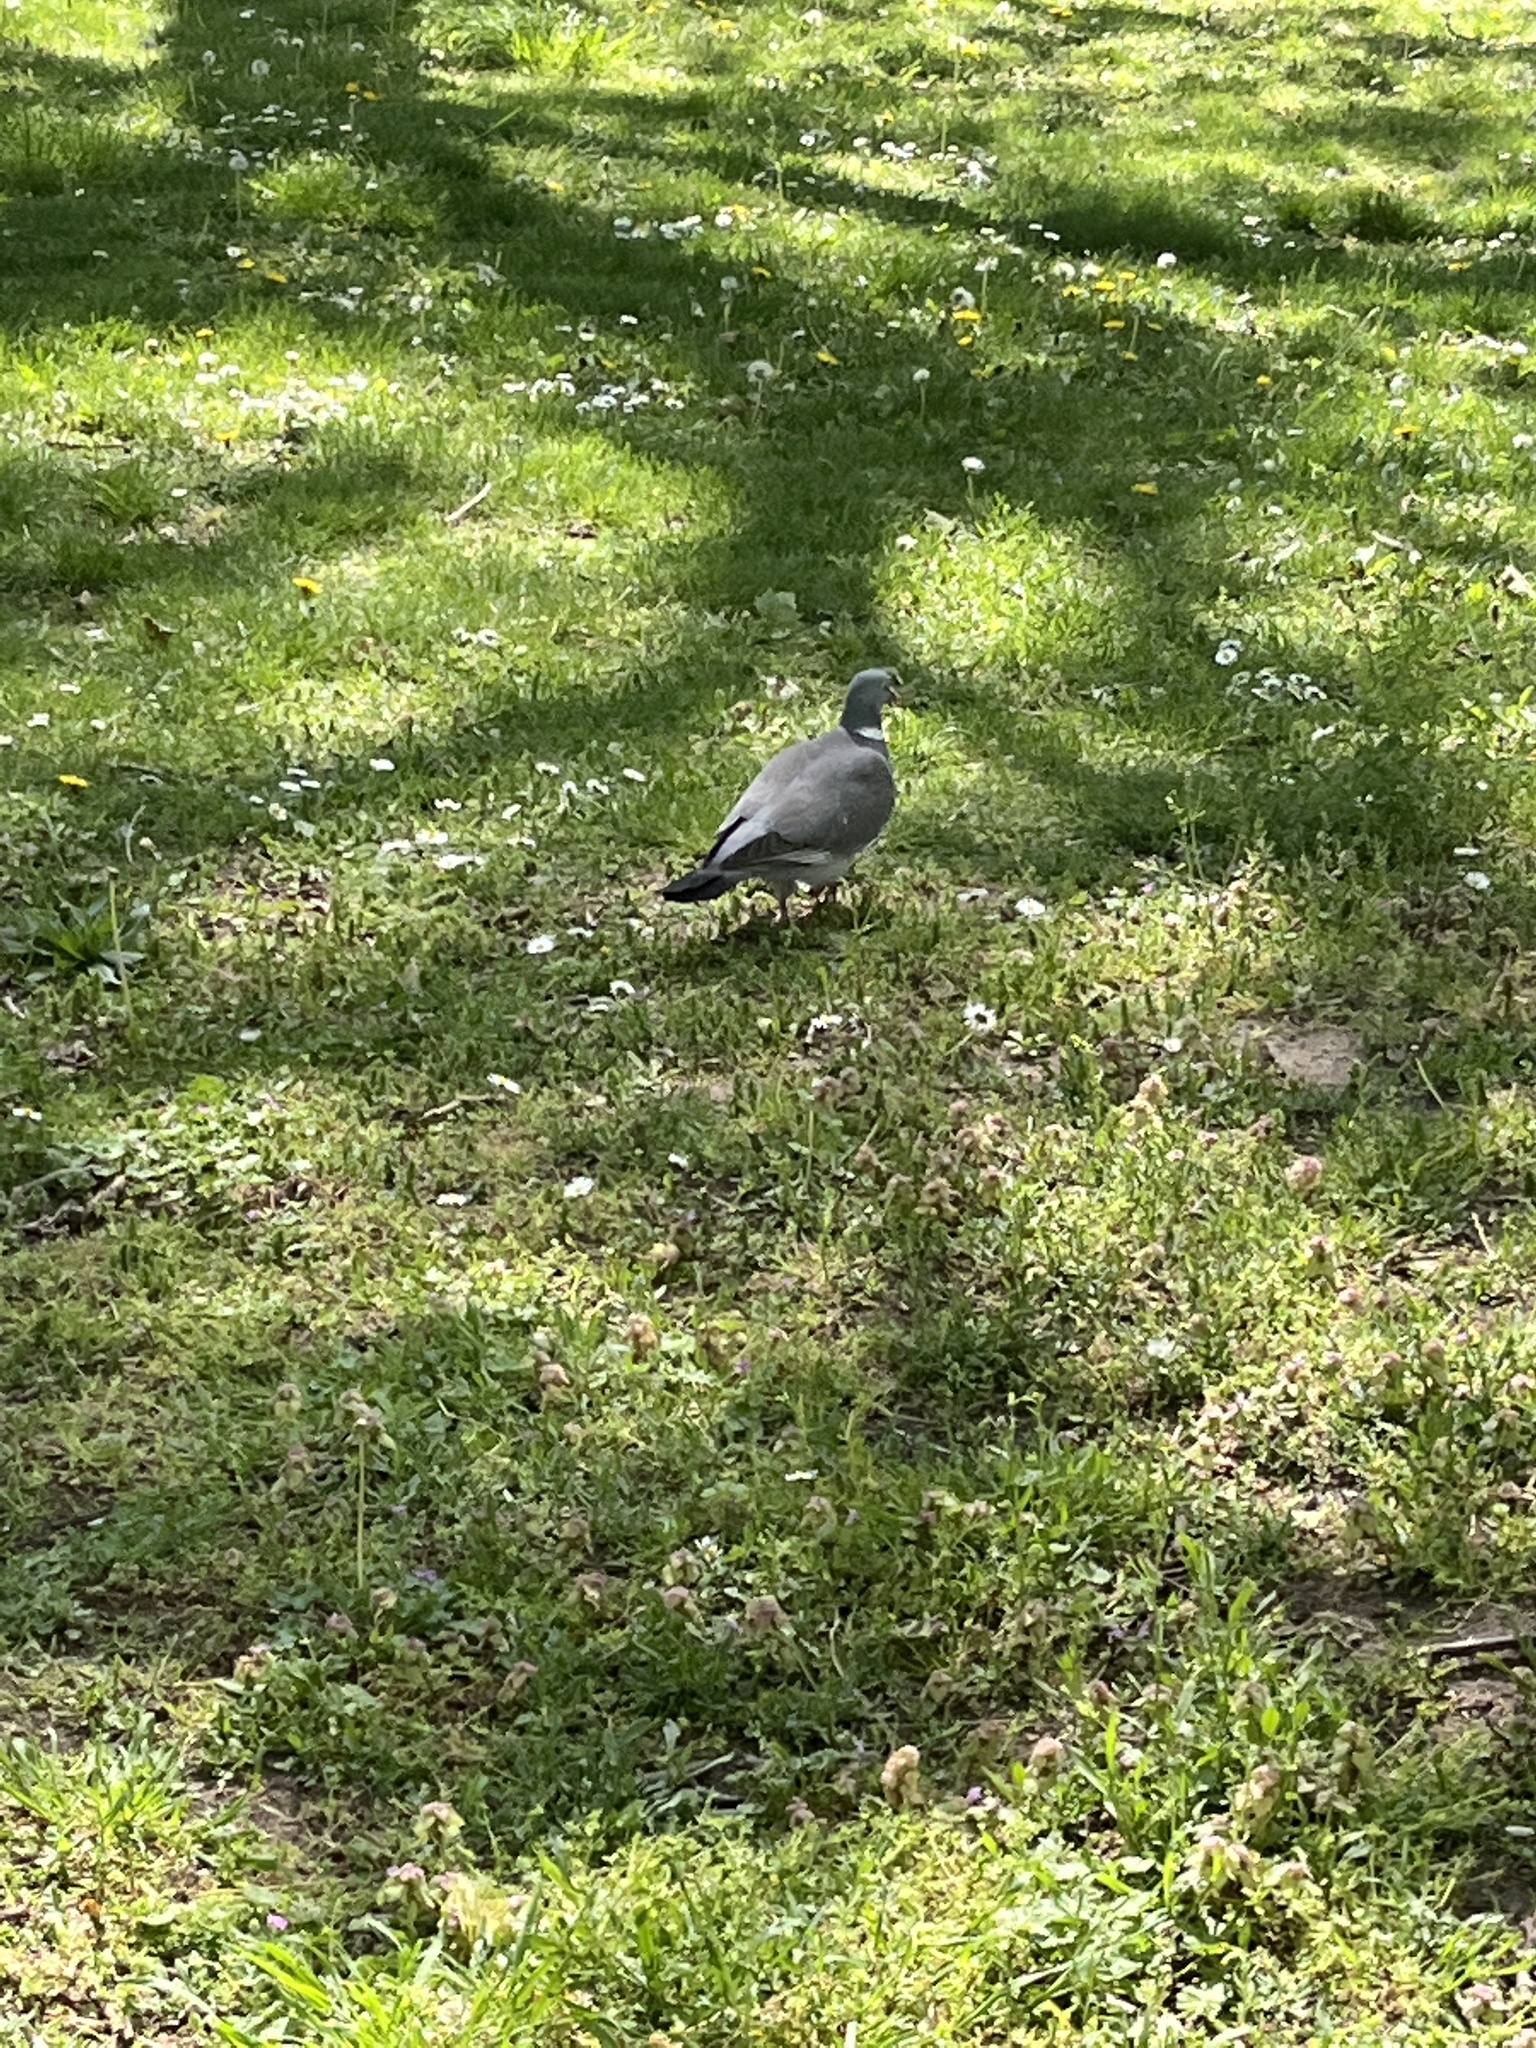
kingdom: Animalia
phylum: Chordata
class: Aves
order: Columbiformes
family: Columbidae
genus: Columba
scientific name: Columba palumbus
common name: Common wood pigeon
